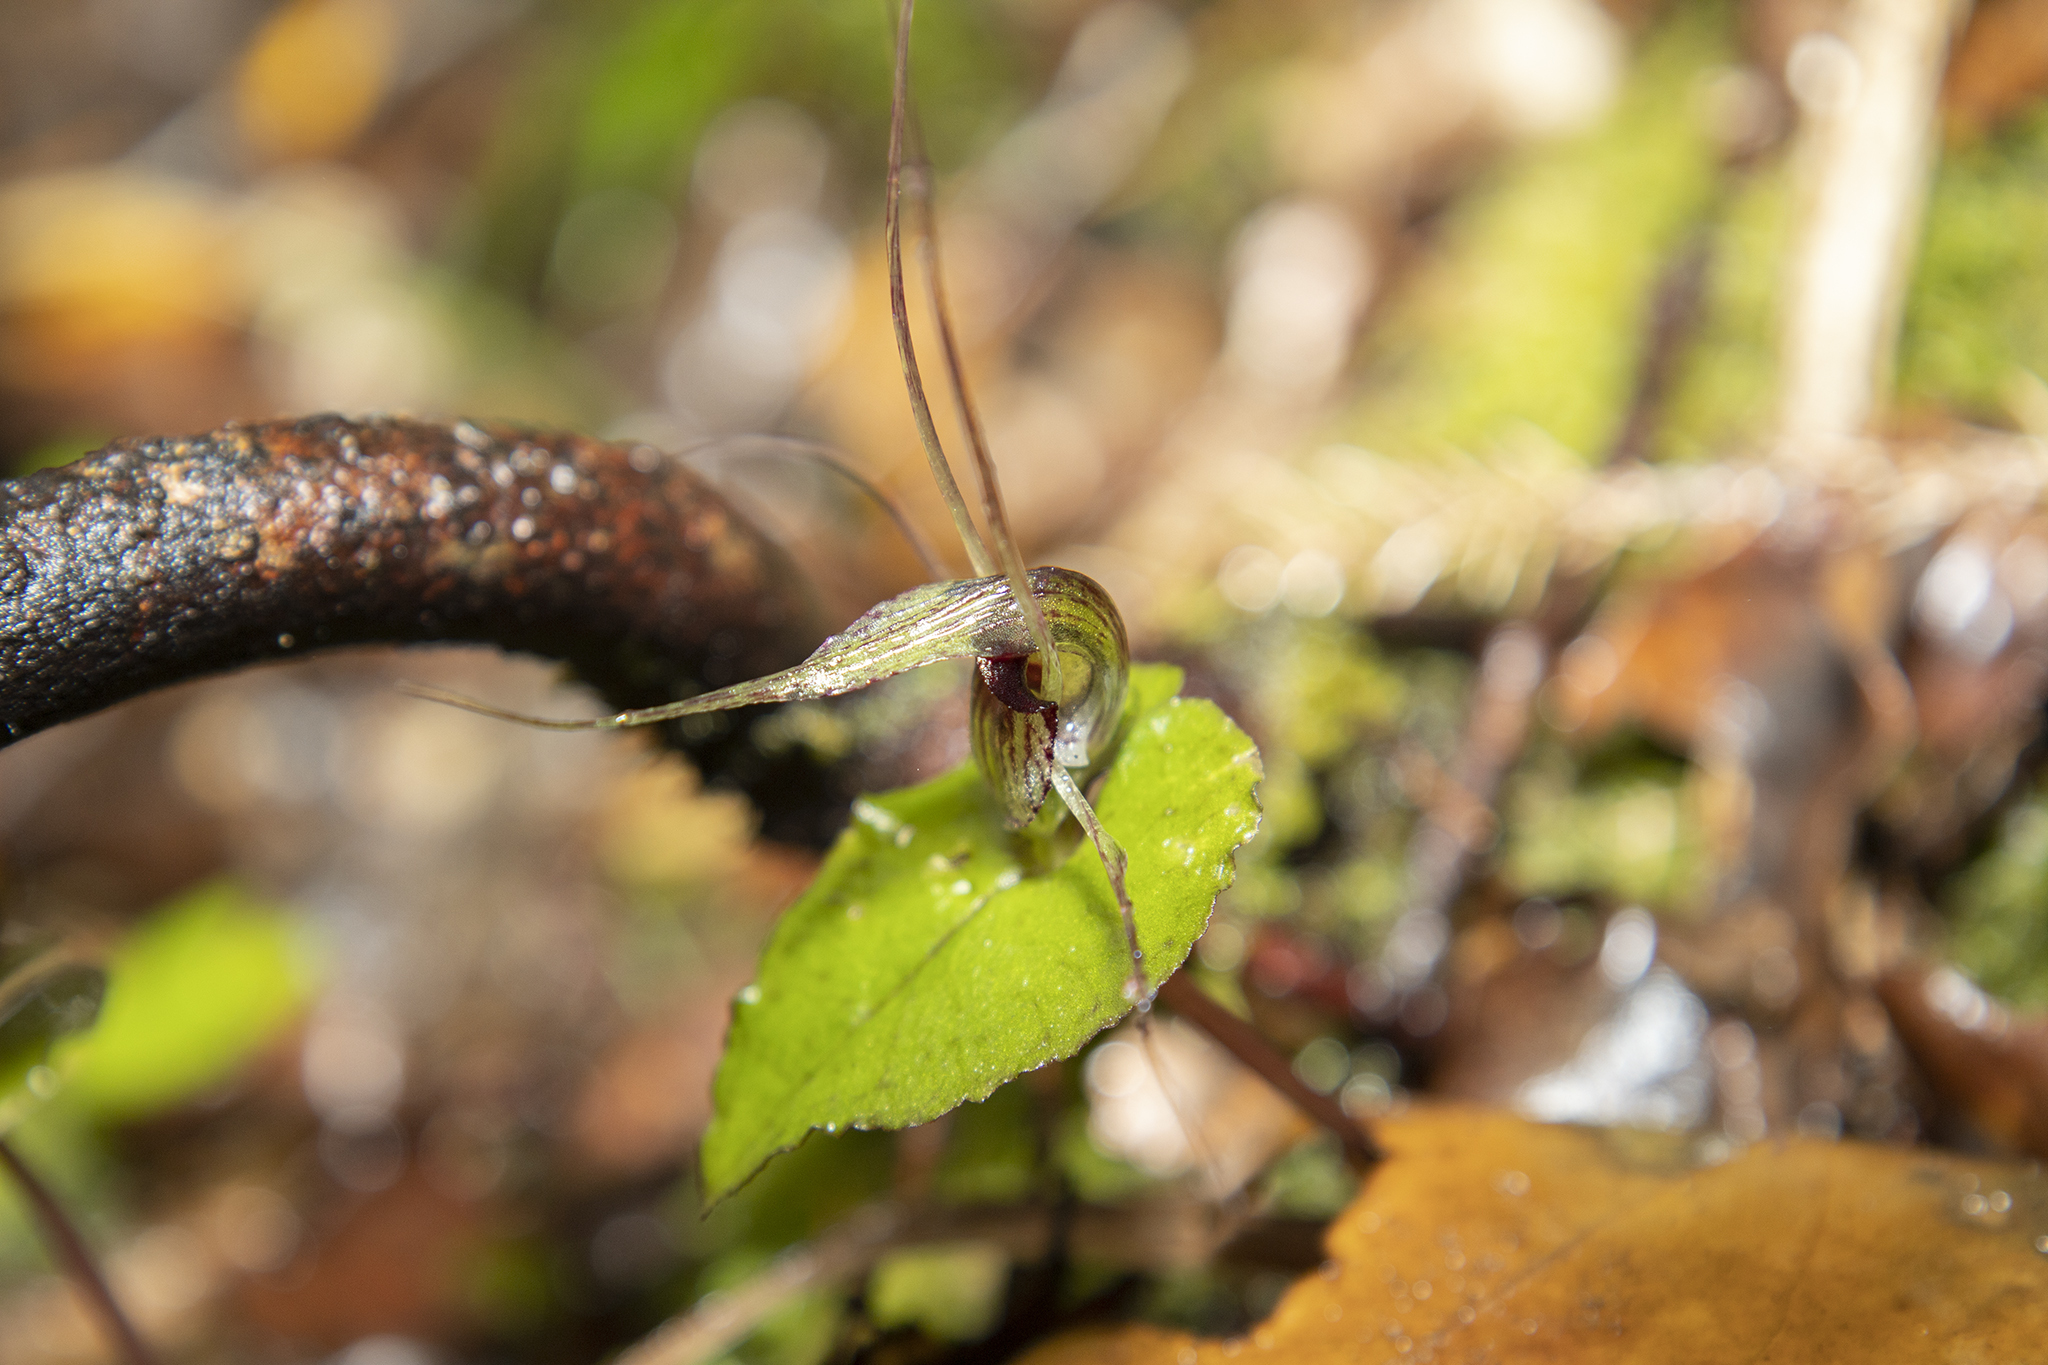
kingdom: Plantae
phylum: Tracheophyta
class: Liliopsida
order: Asparagales
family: Orchidaceae
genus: Corybas
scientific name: Corybas acuminatus
